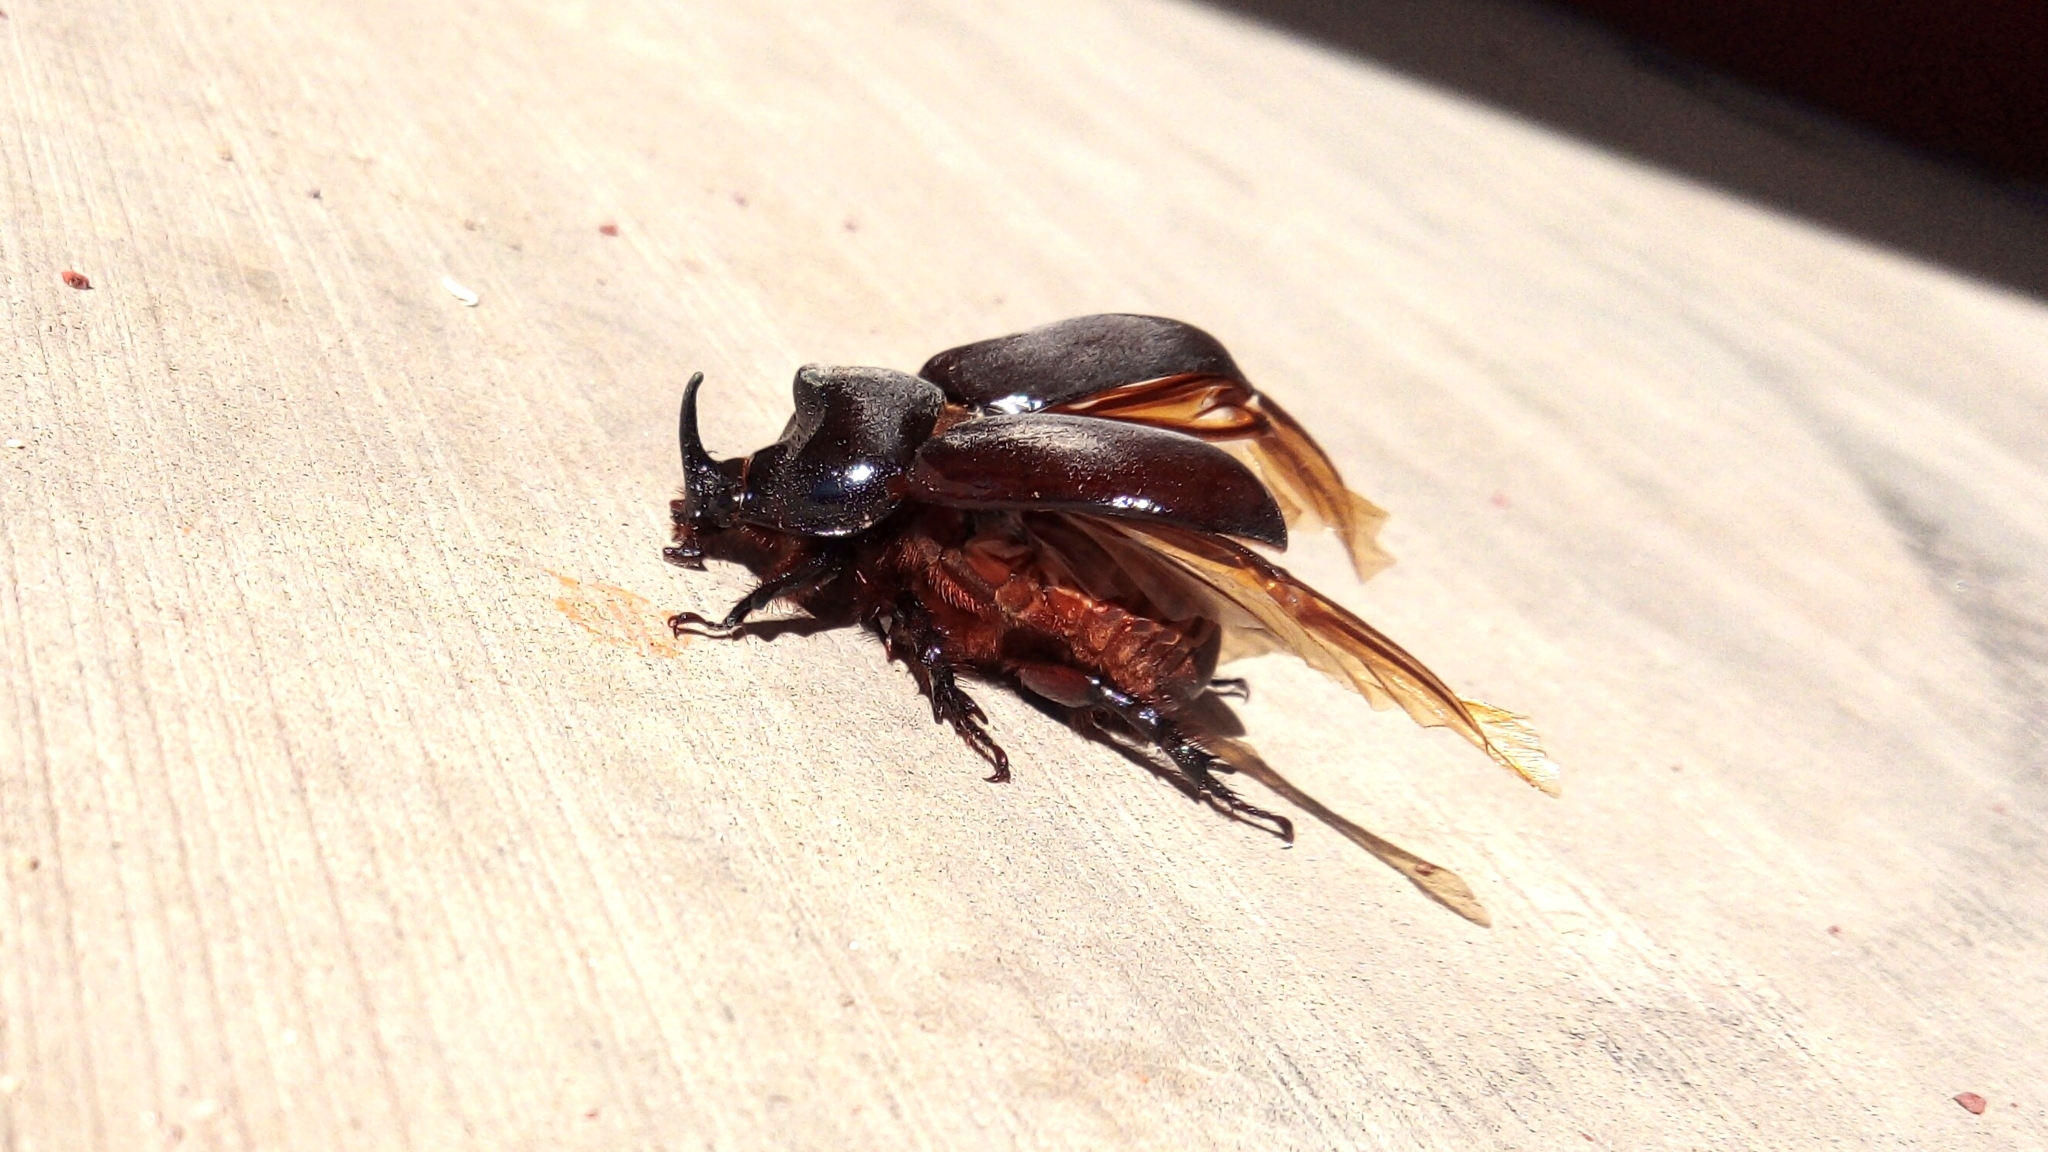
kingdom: Animalia
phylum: Arthropoda
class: Insecta
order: Coleoptera
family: Scarabaeidae
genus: Xyloryctes
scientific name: Xyloryctes thestalus
